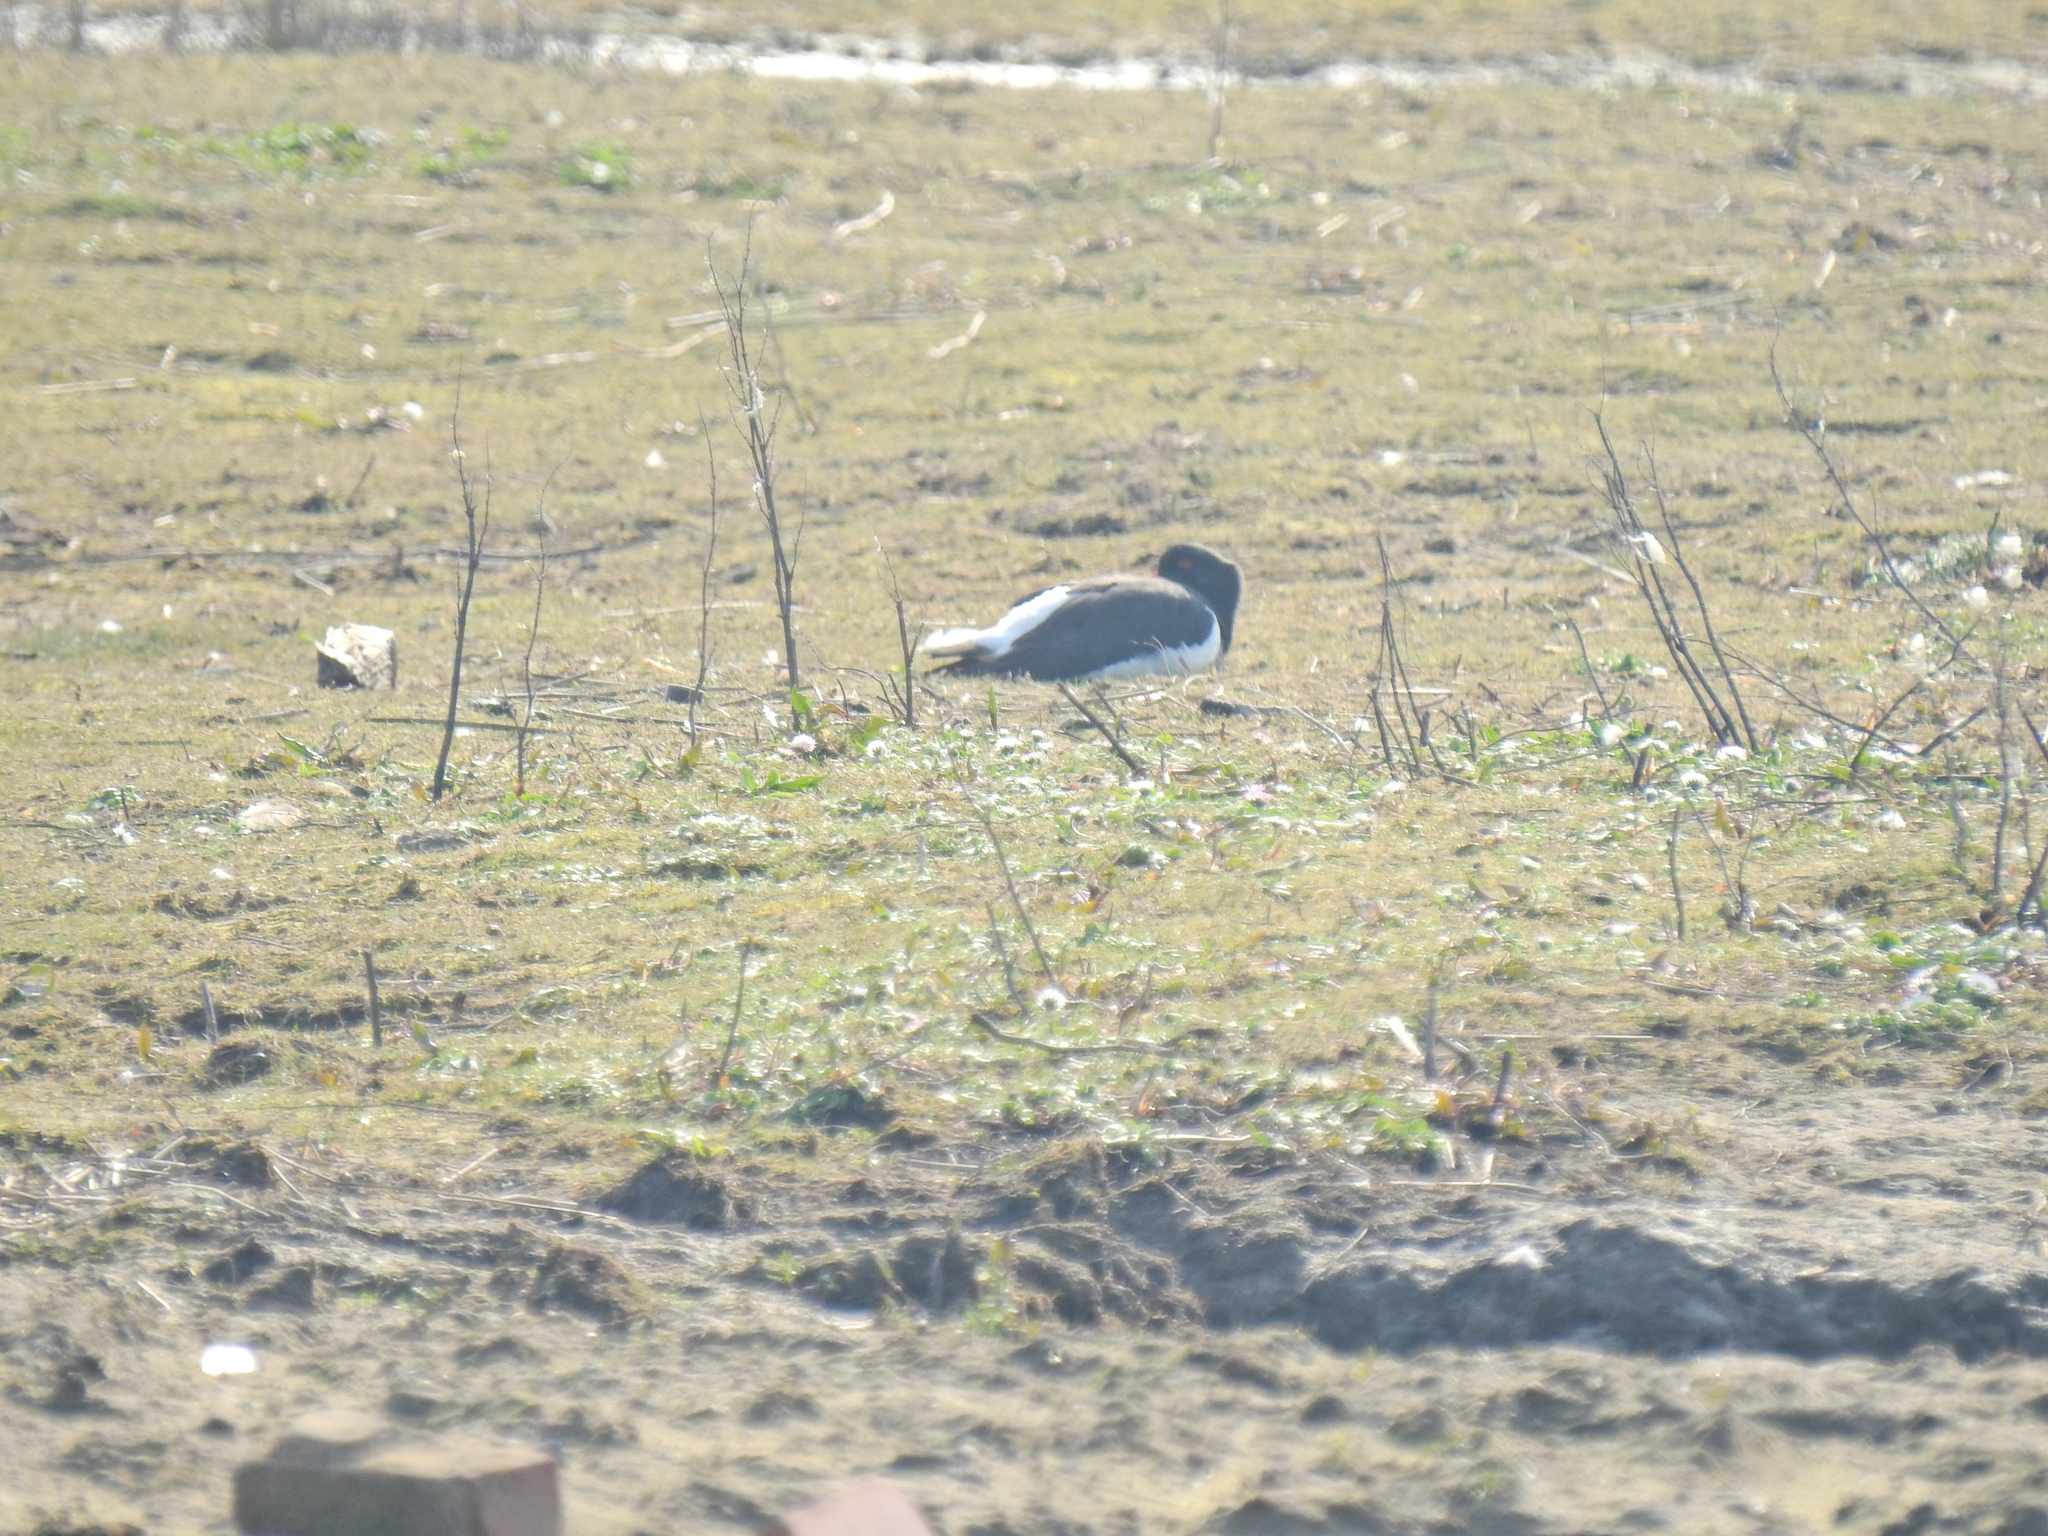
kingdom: Animalia
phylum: Chordata
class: Aves
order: Charadriiformes
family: Haematopodidae
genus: Haematopus
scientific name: Haematopus ostralegus
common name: Eurasian oystercatcher
